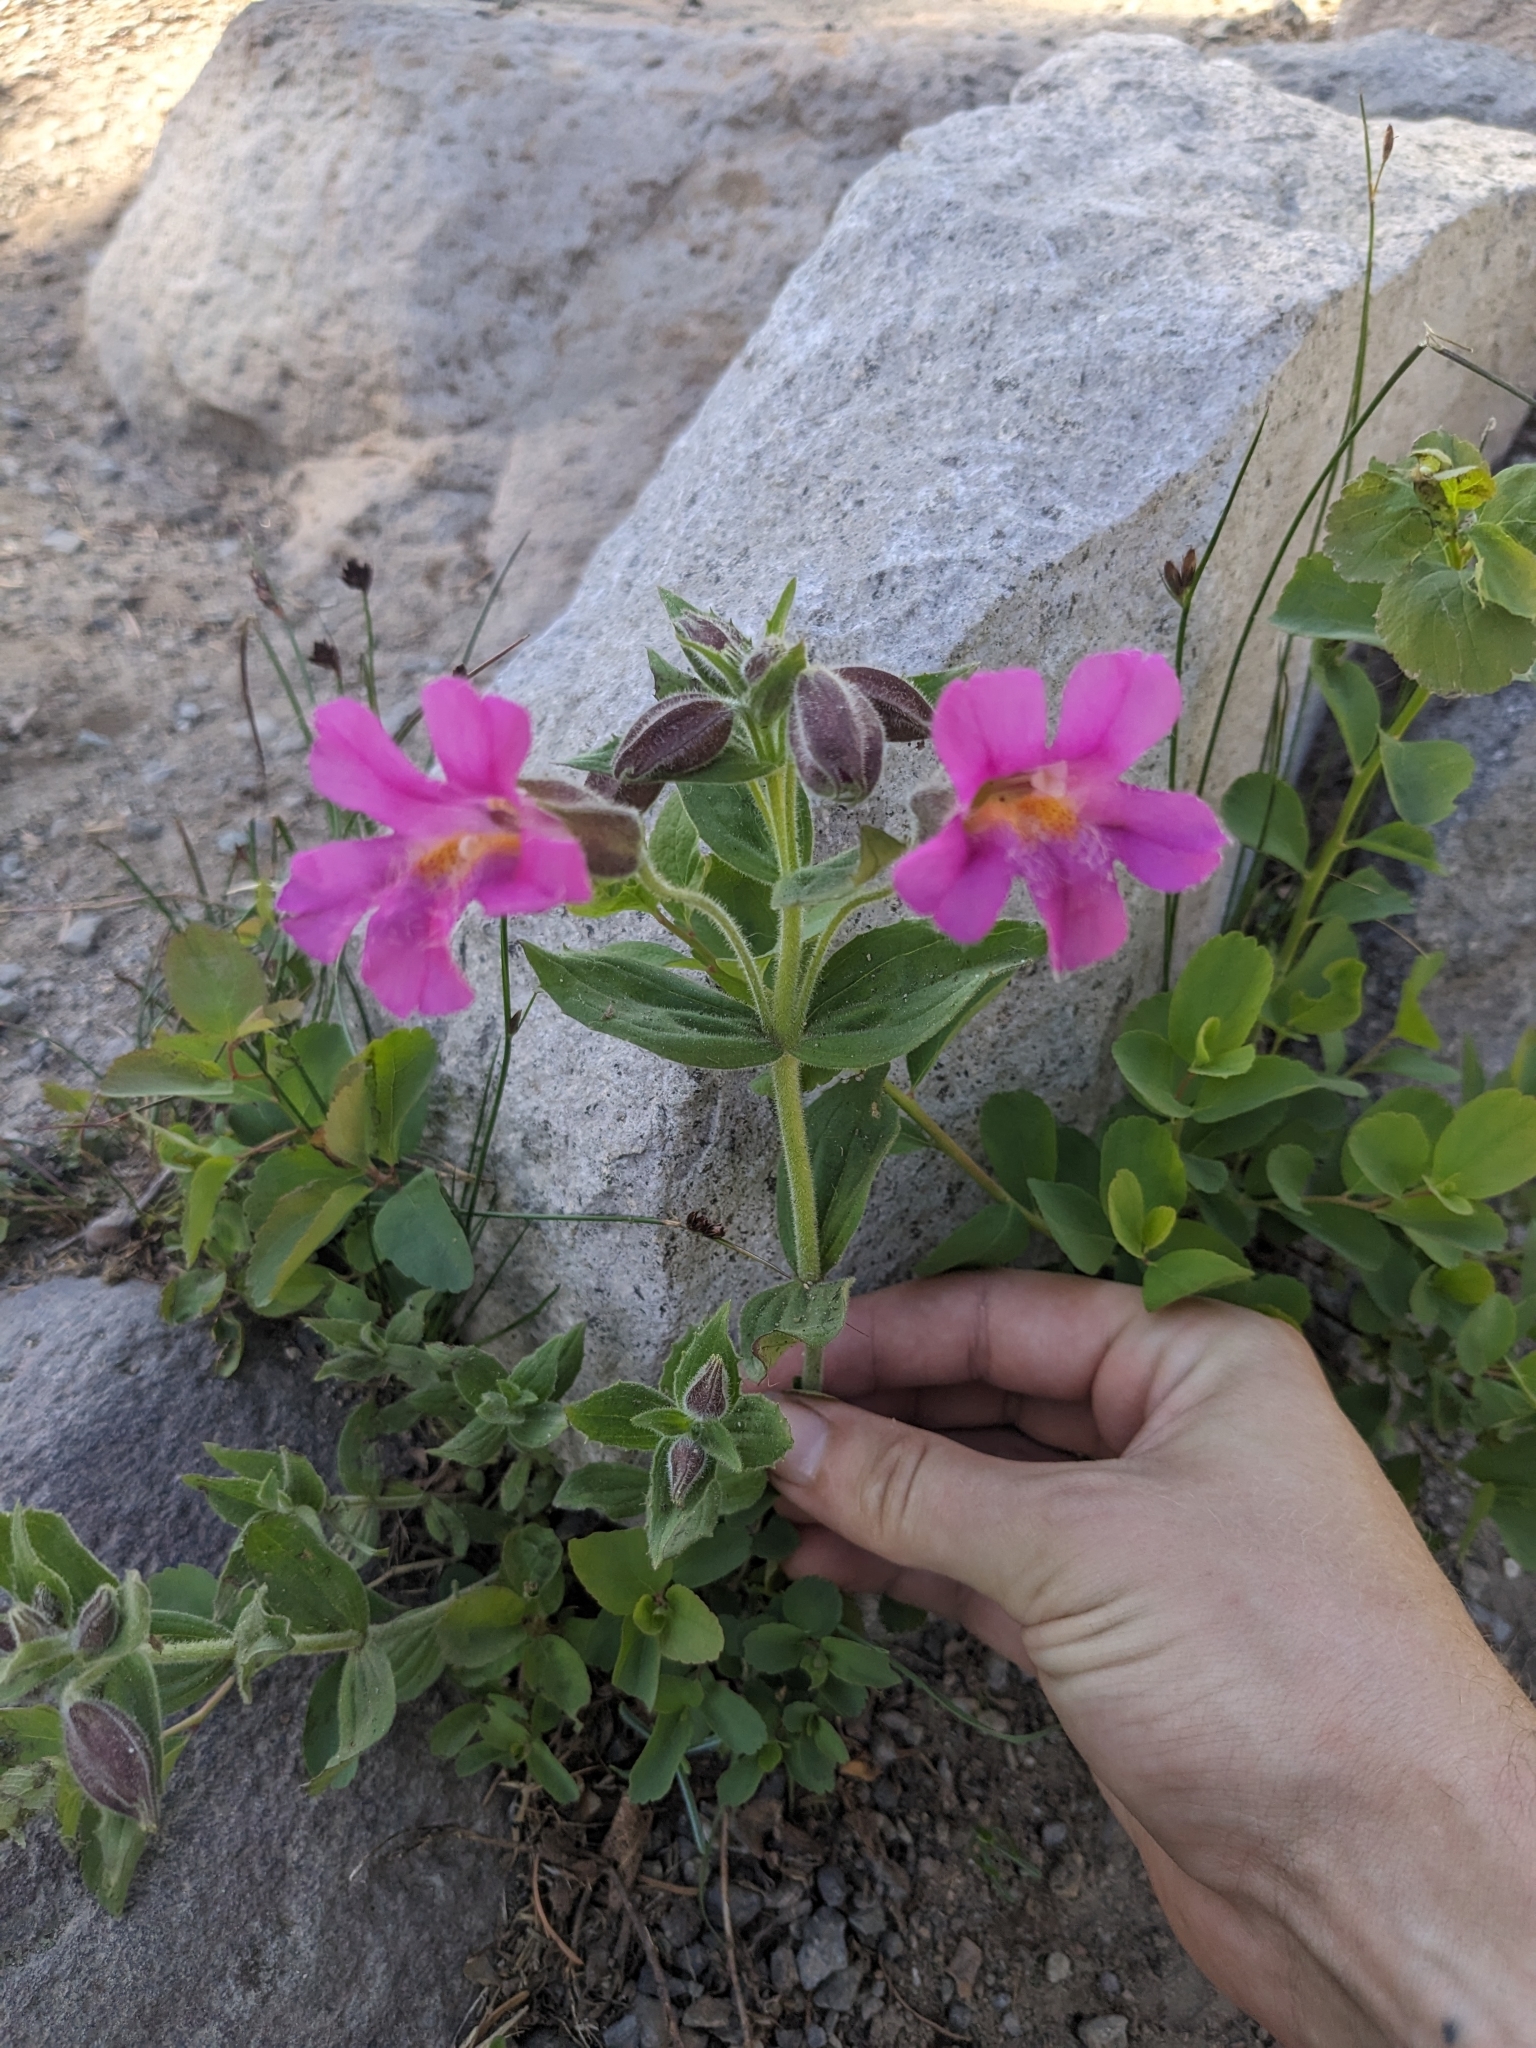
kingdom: Plantae
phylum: Tracheophyta
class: Magnoliopsida
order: Lamiales
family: Phrymaceae
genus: Erythranthe
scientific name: Erythranthe lewisii
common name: Lewis's monkey-flower
